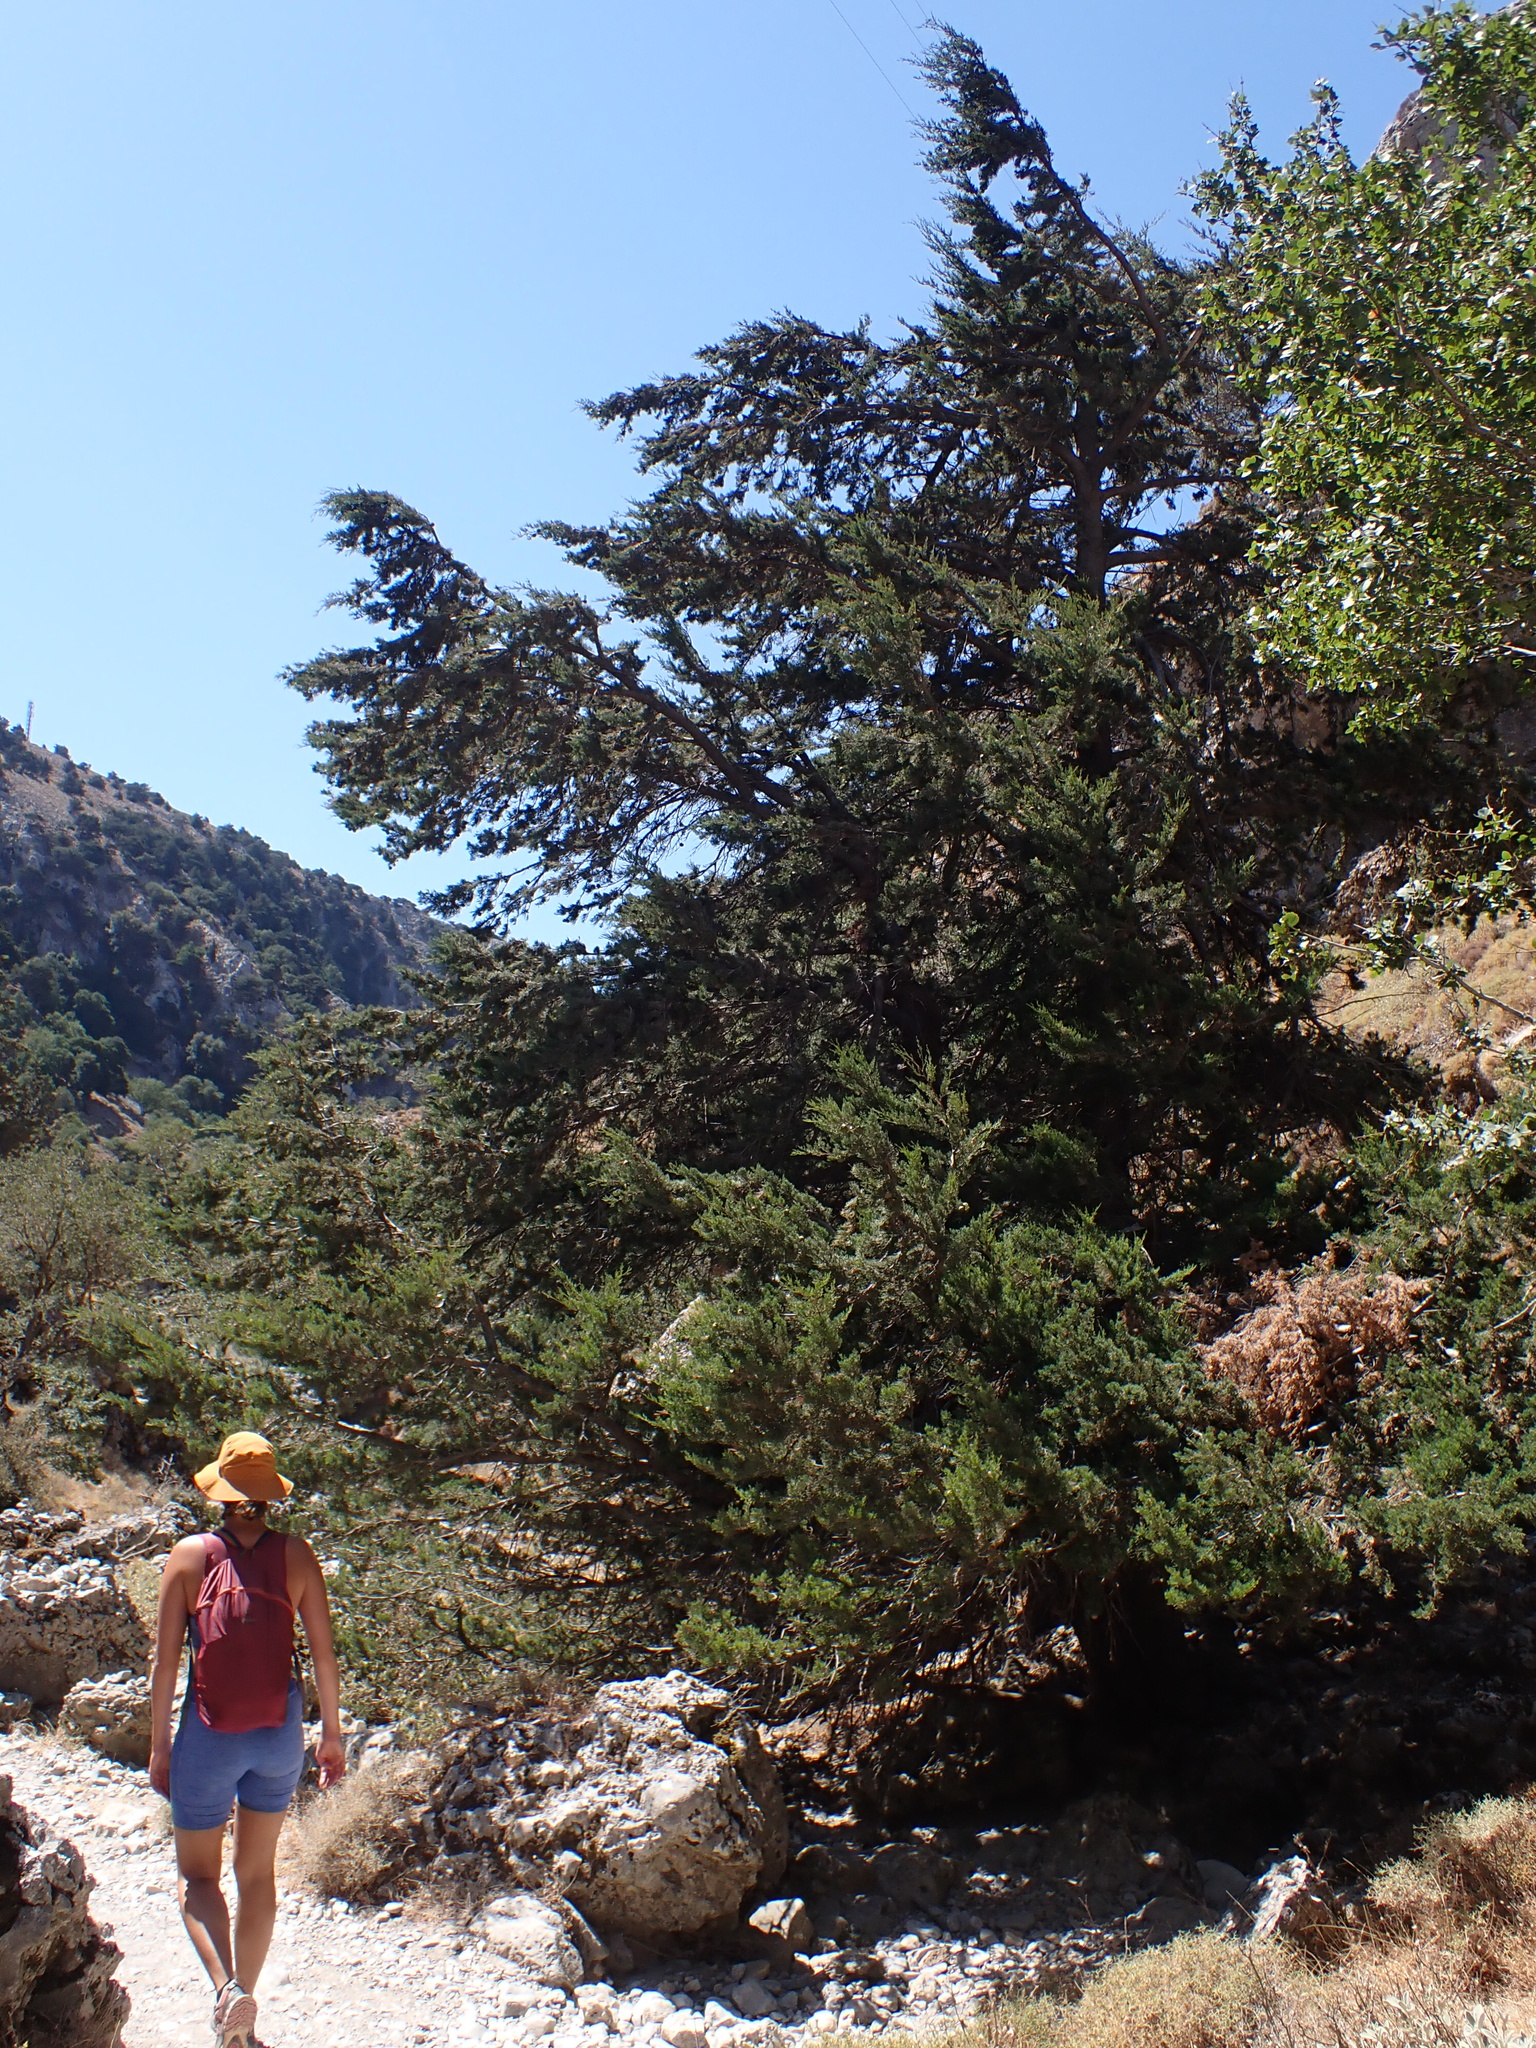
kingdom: Plantae
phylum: Tracheophyta
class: Pinopsida
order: Pinales
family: Cupressaceae
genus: Cupressus
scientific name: Cupressus sempervirens
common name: Italian cypress
